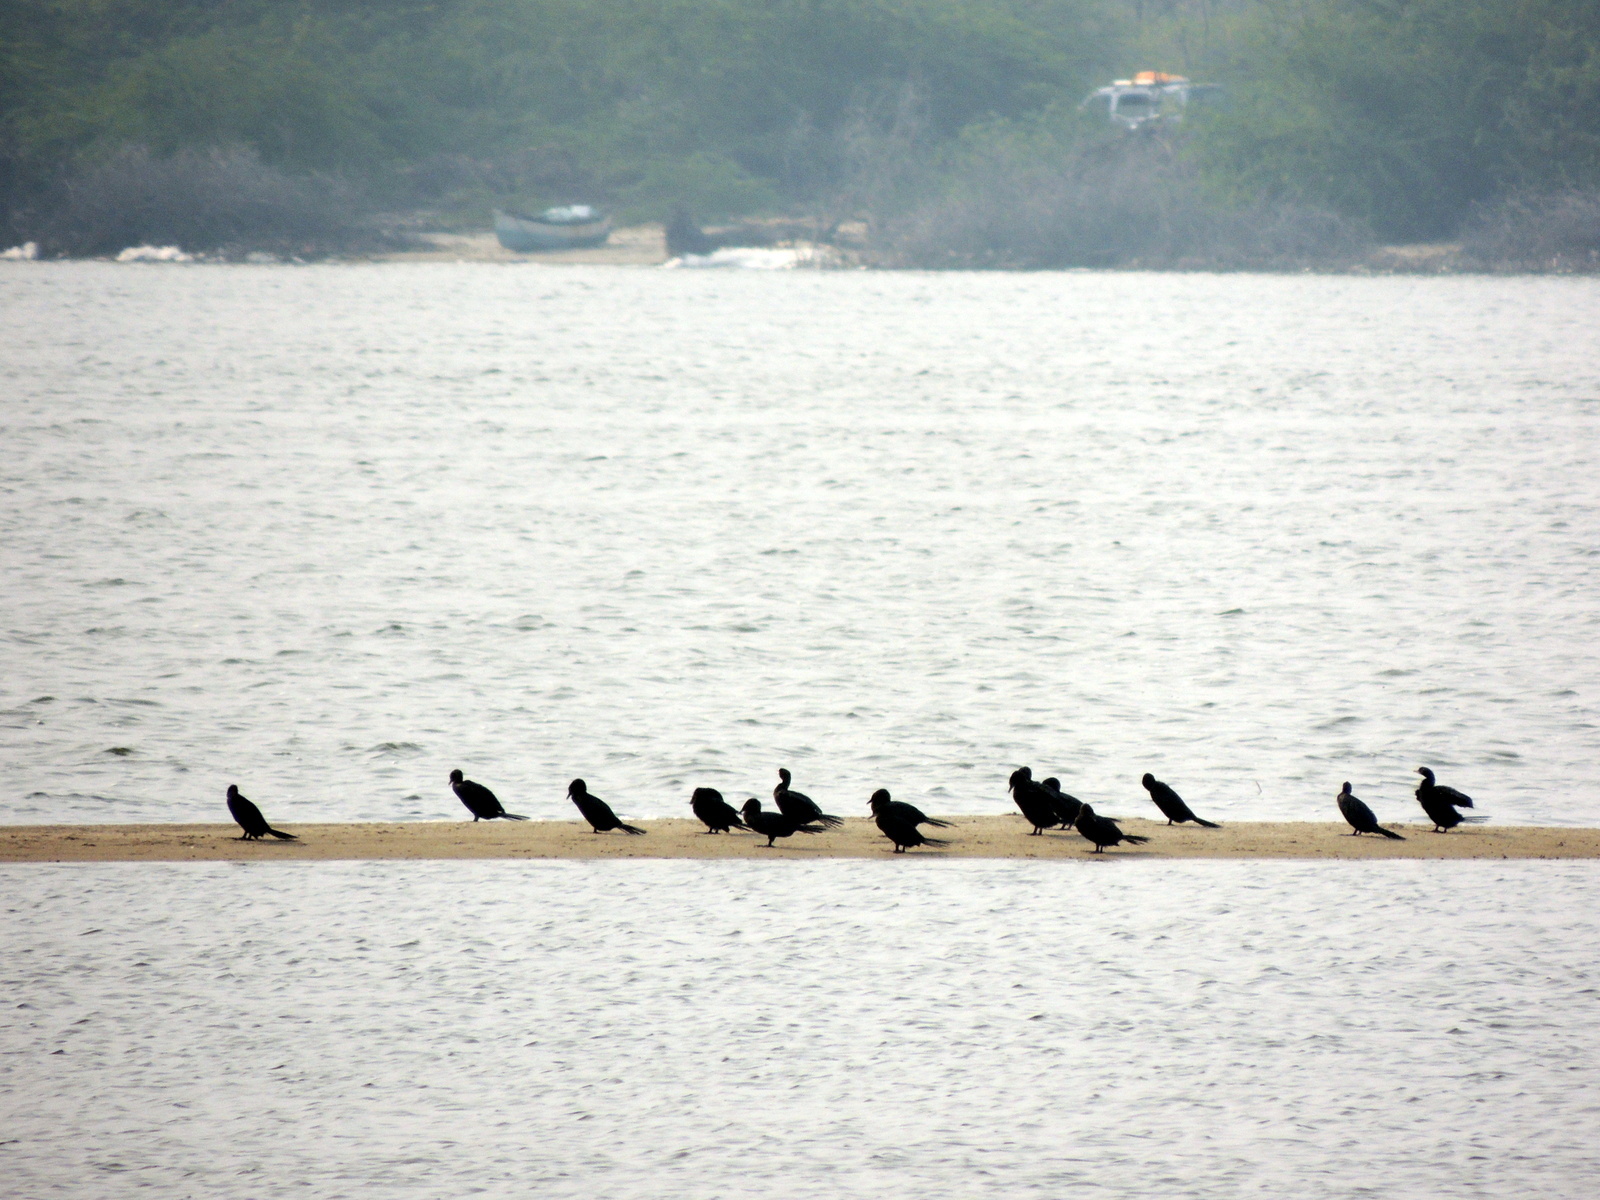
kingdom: Animalia
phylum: Chordata
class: Aves
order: Suliformes
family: Phalacrocoracidae
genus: Microcarbo
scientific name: Microcarbo niger
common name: Little cormorant
